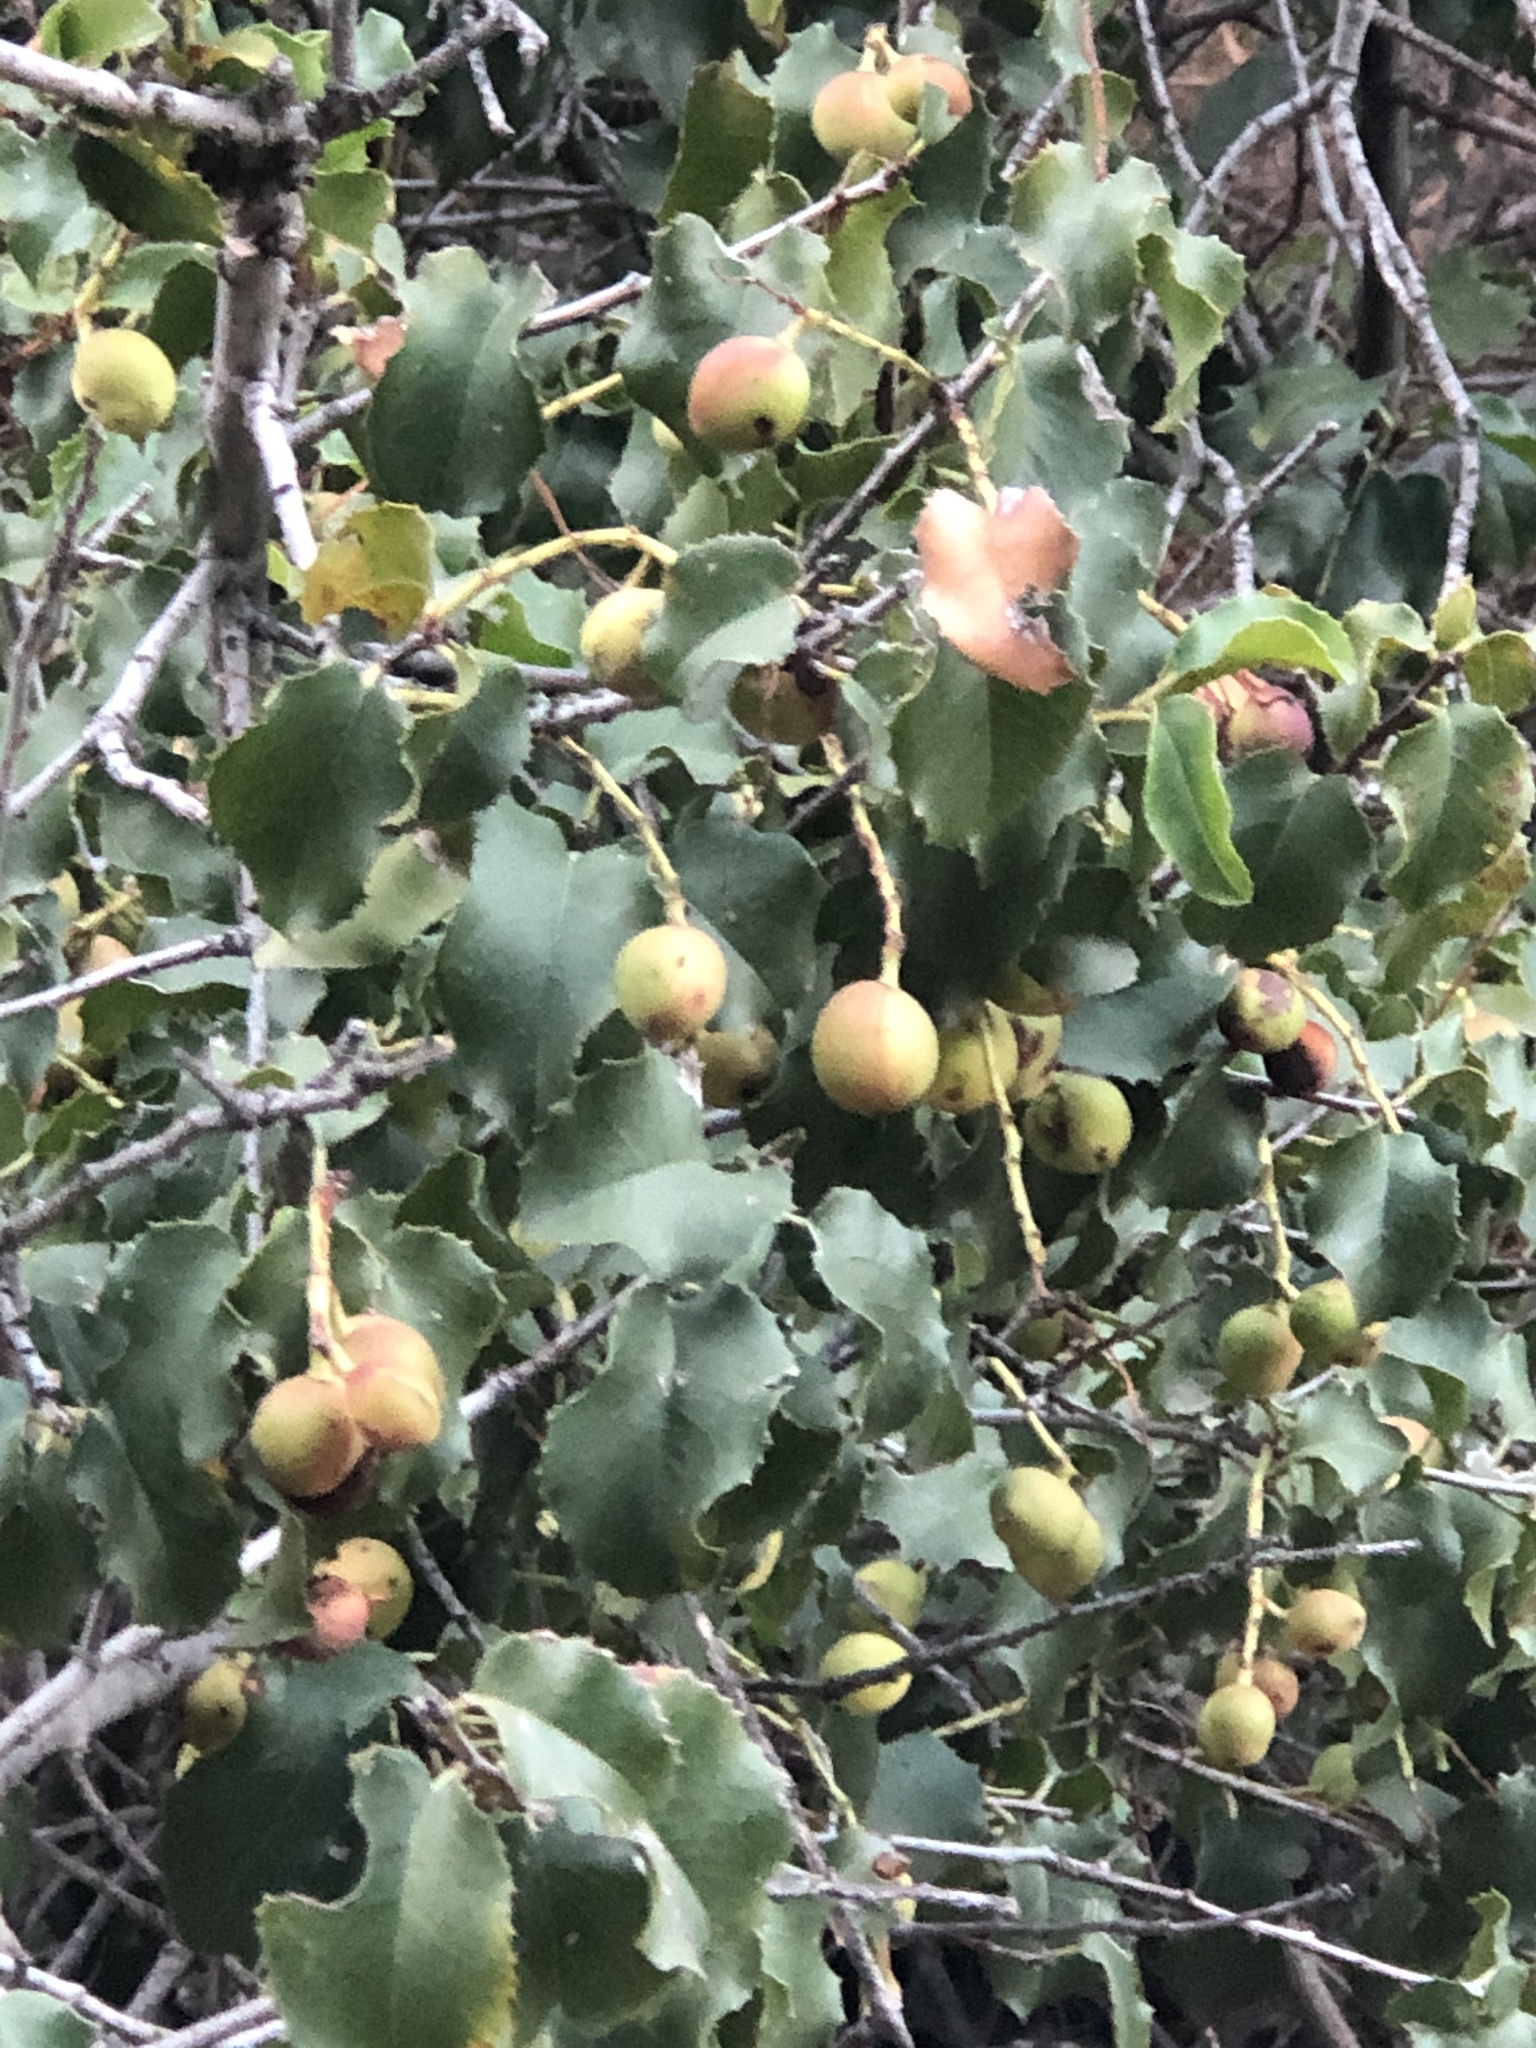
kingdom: Plantae
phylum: Tracheophyta
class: Magnoliopsida
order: Rosales
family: Rosaceae
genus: Prunus
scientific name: Prunus ilicifolia
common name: Hollyleaf cherry
